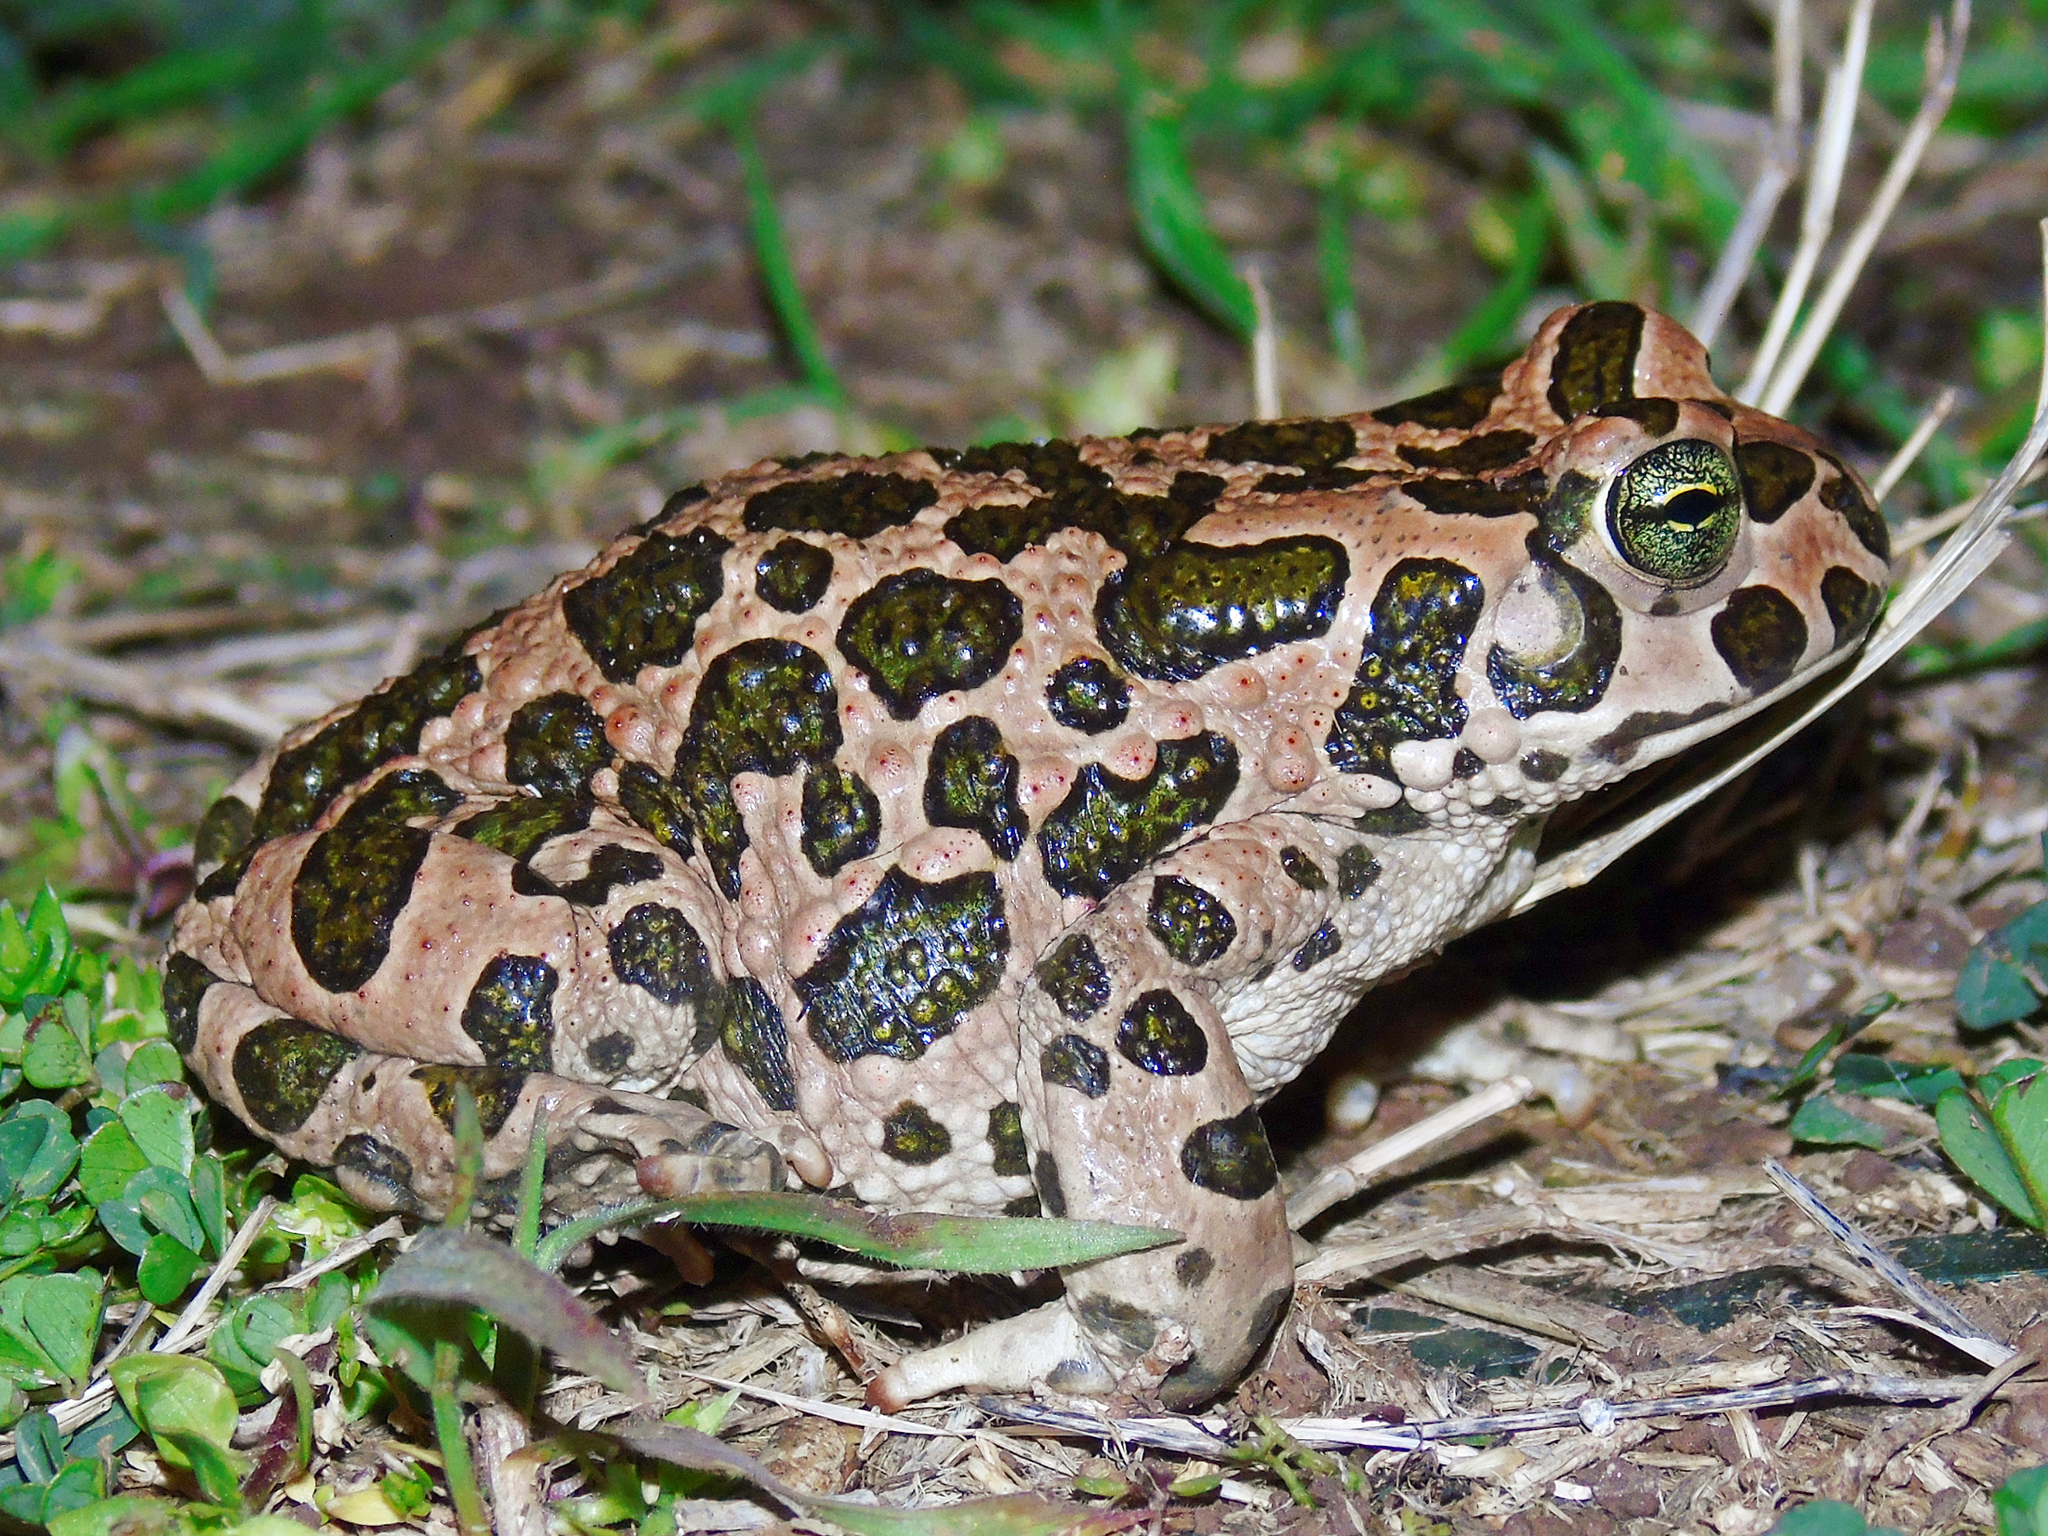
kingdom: Animalia
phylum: Chordata
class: Amphibia
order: Anura
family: Bufonidae
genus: Bufotes
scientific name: Bufotes viridis
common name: European green toad
